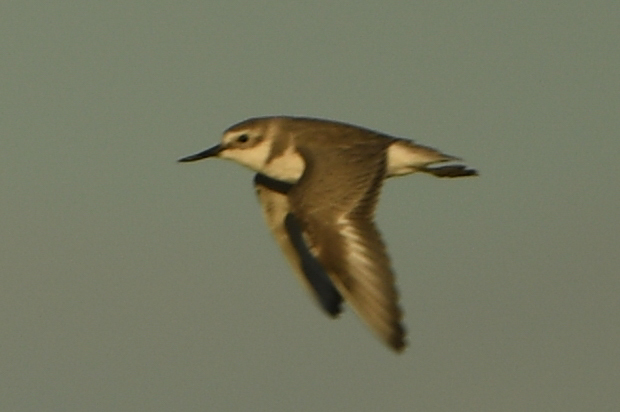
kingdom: Animalia
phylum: Chordata
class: Aves
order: Charadriiformes
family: Charadriidae
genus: Anarhynchus
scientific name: Anarhynchus frontalis
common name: Wrybill
